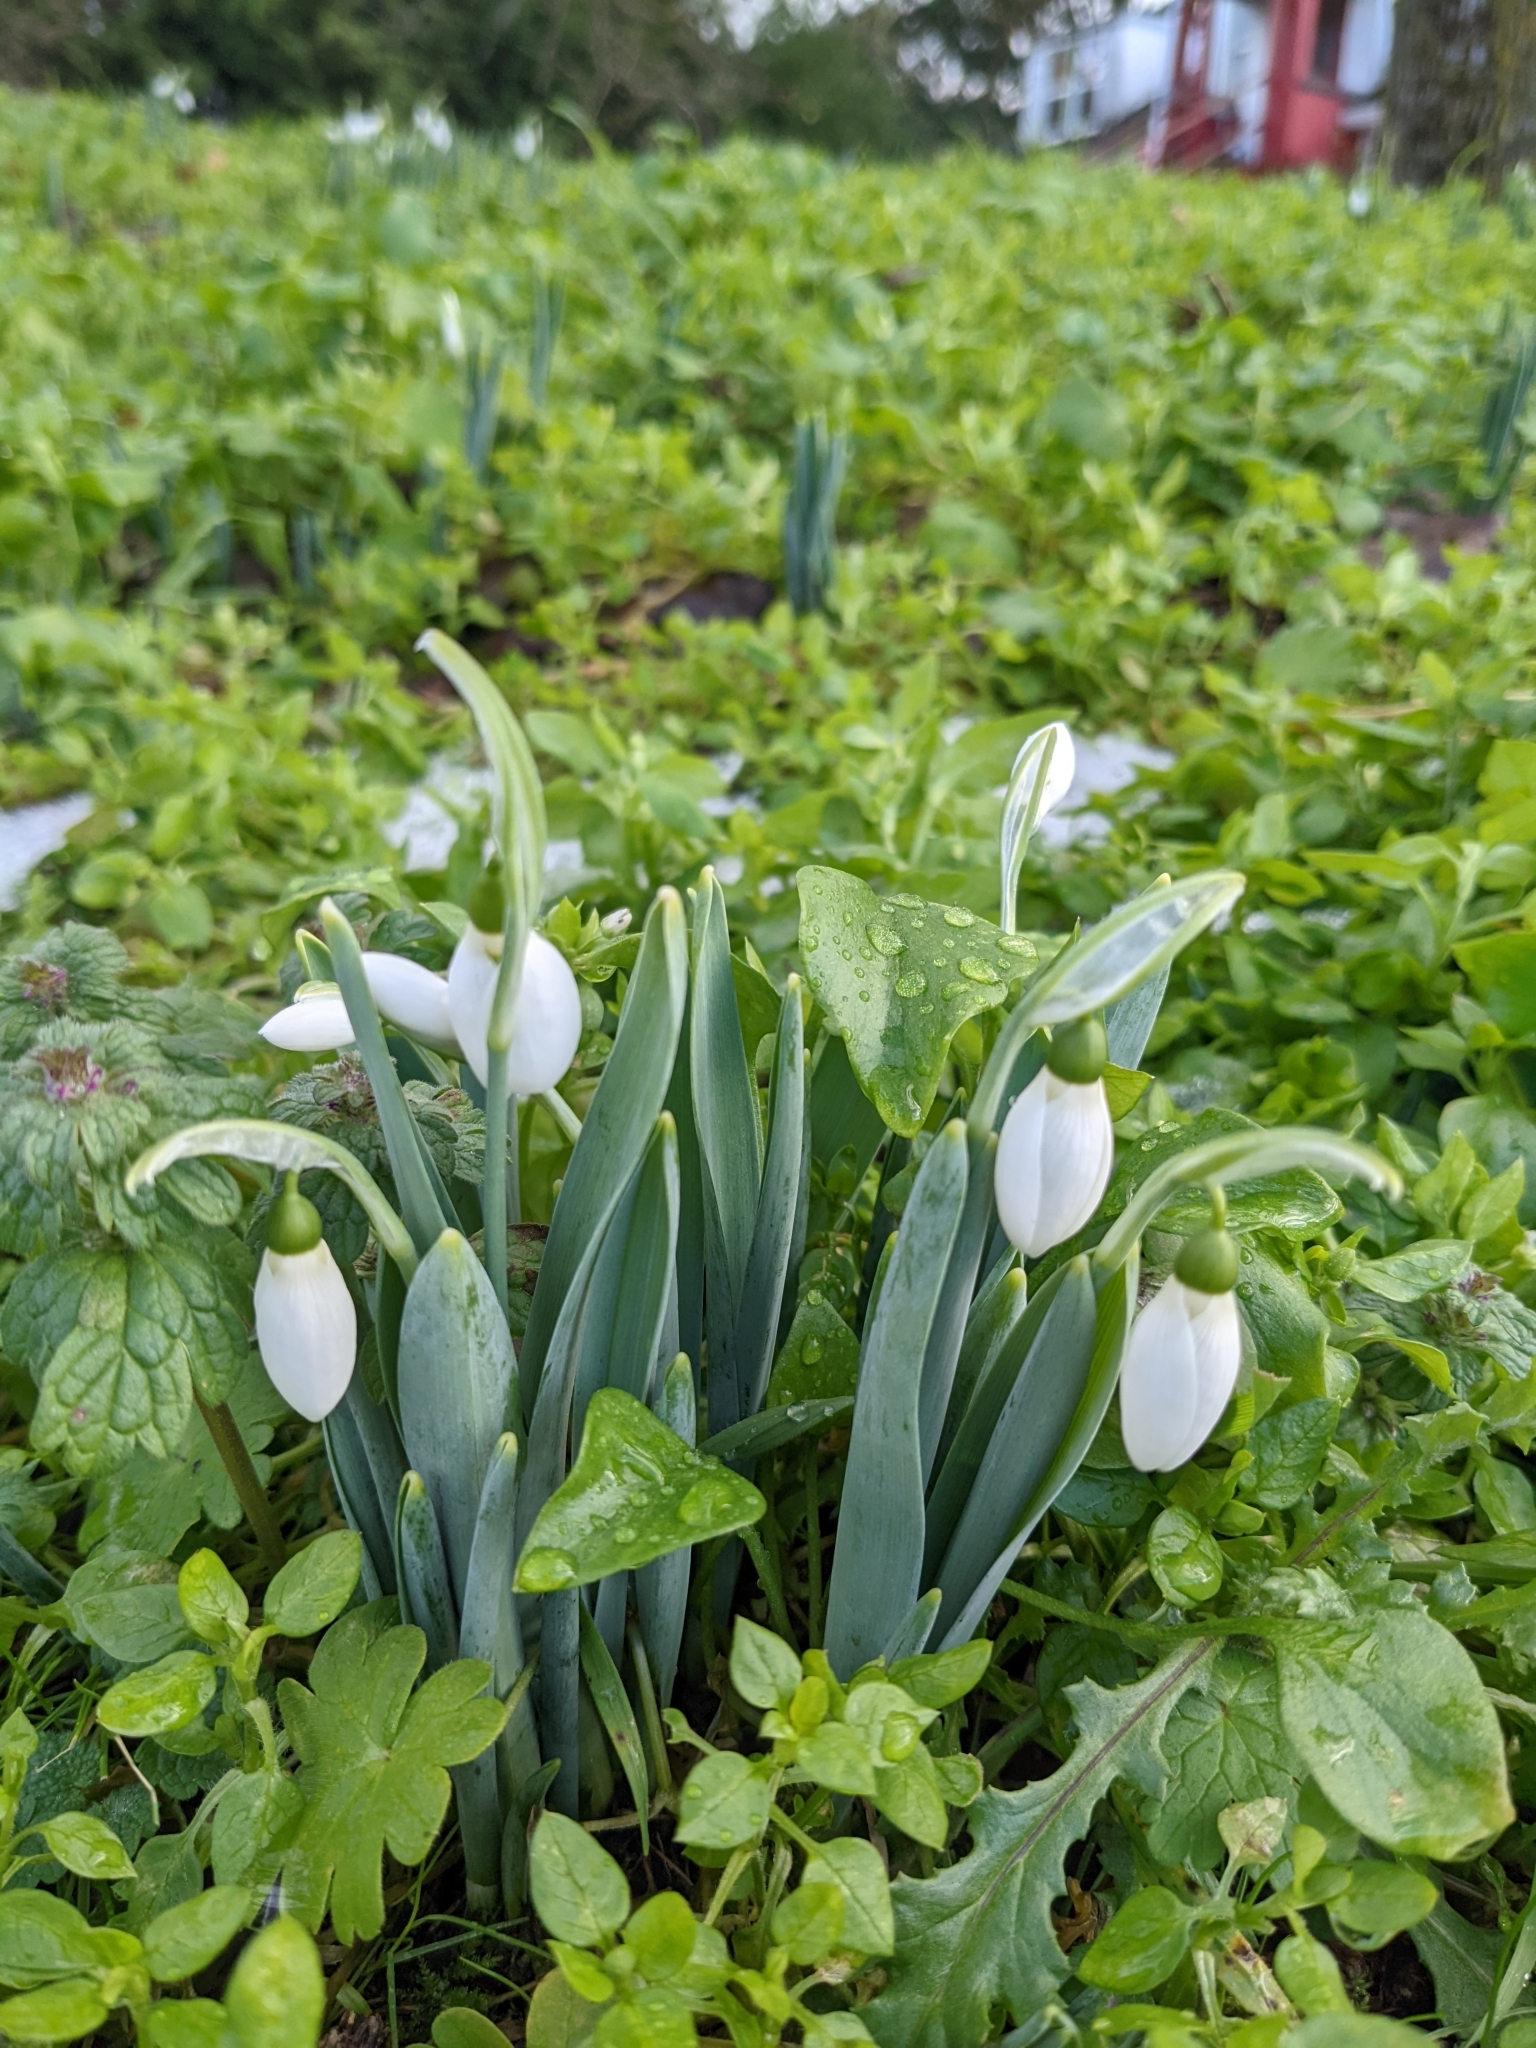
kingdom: Plantae
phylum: Tracheophyta
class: Liliopsida
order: Asparagales
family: Amaryllidaceae
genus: Galanthus
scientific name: Galanthus elwesii
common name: Greater snowdrop
